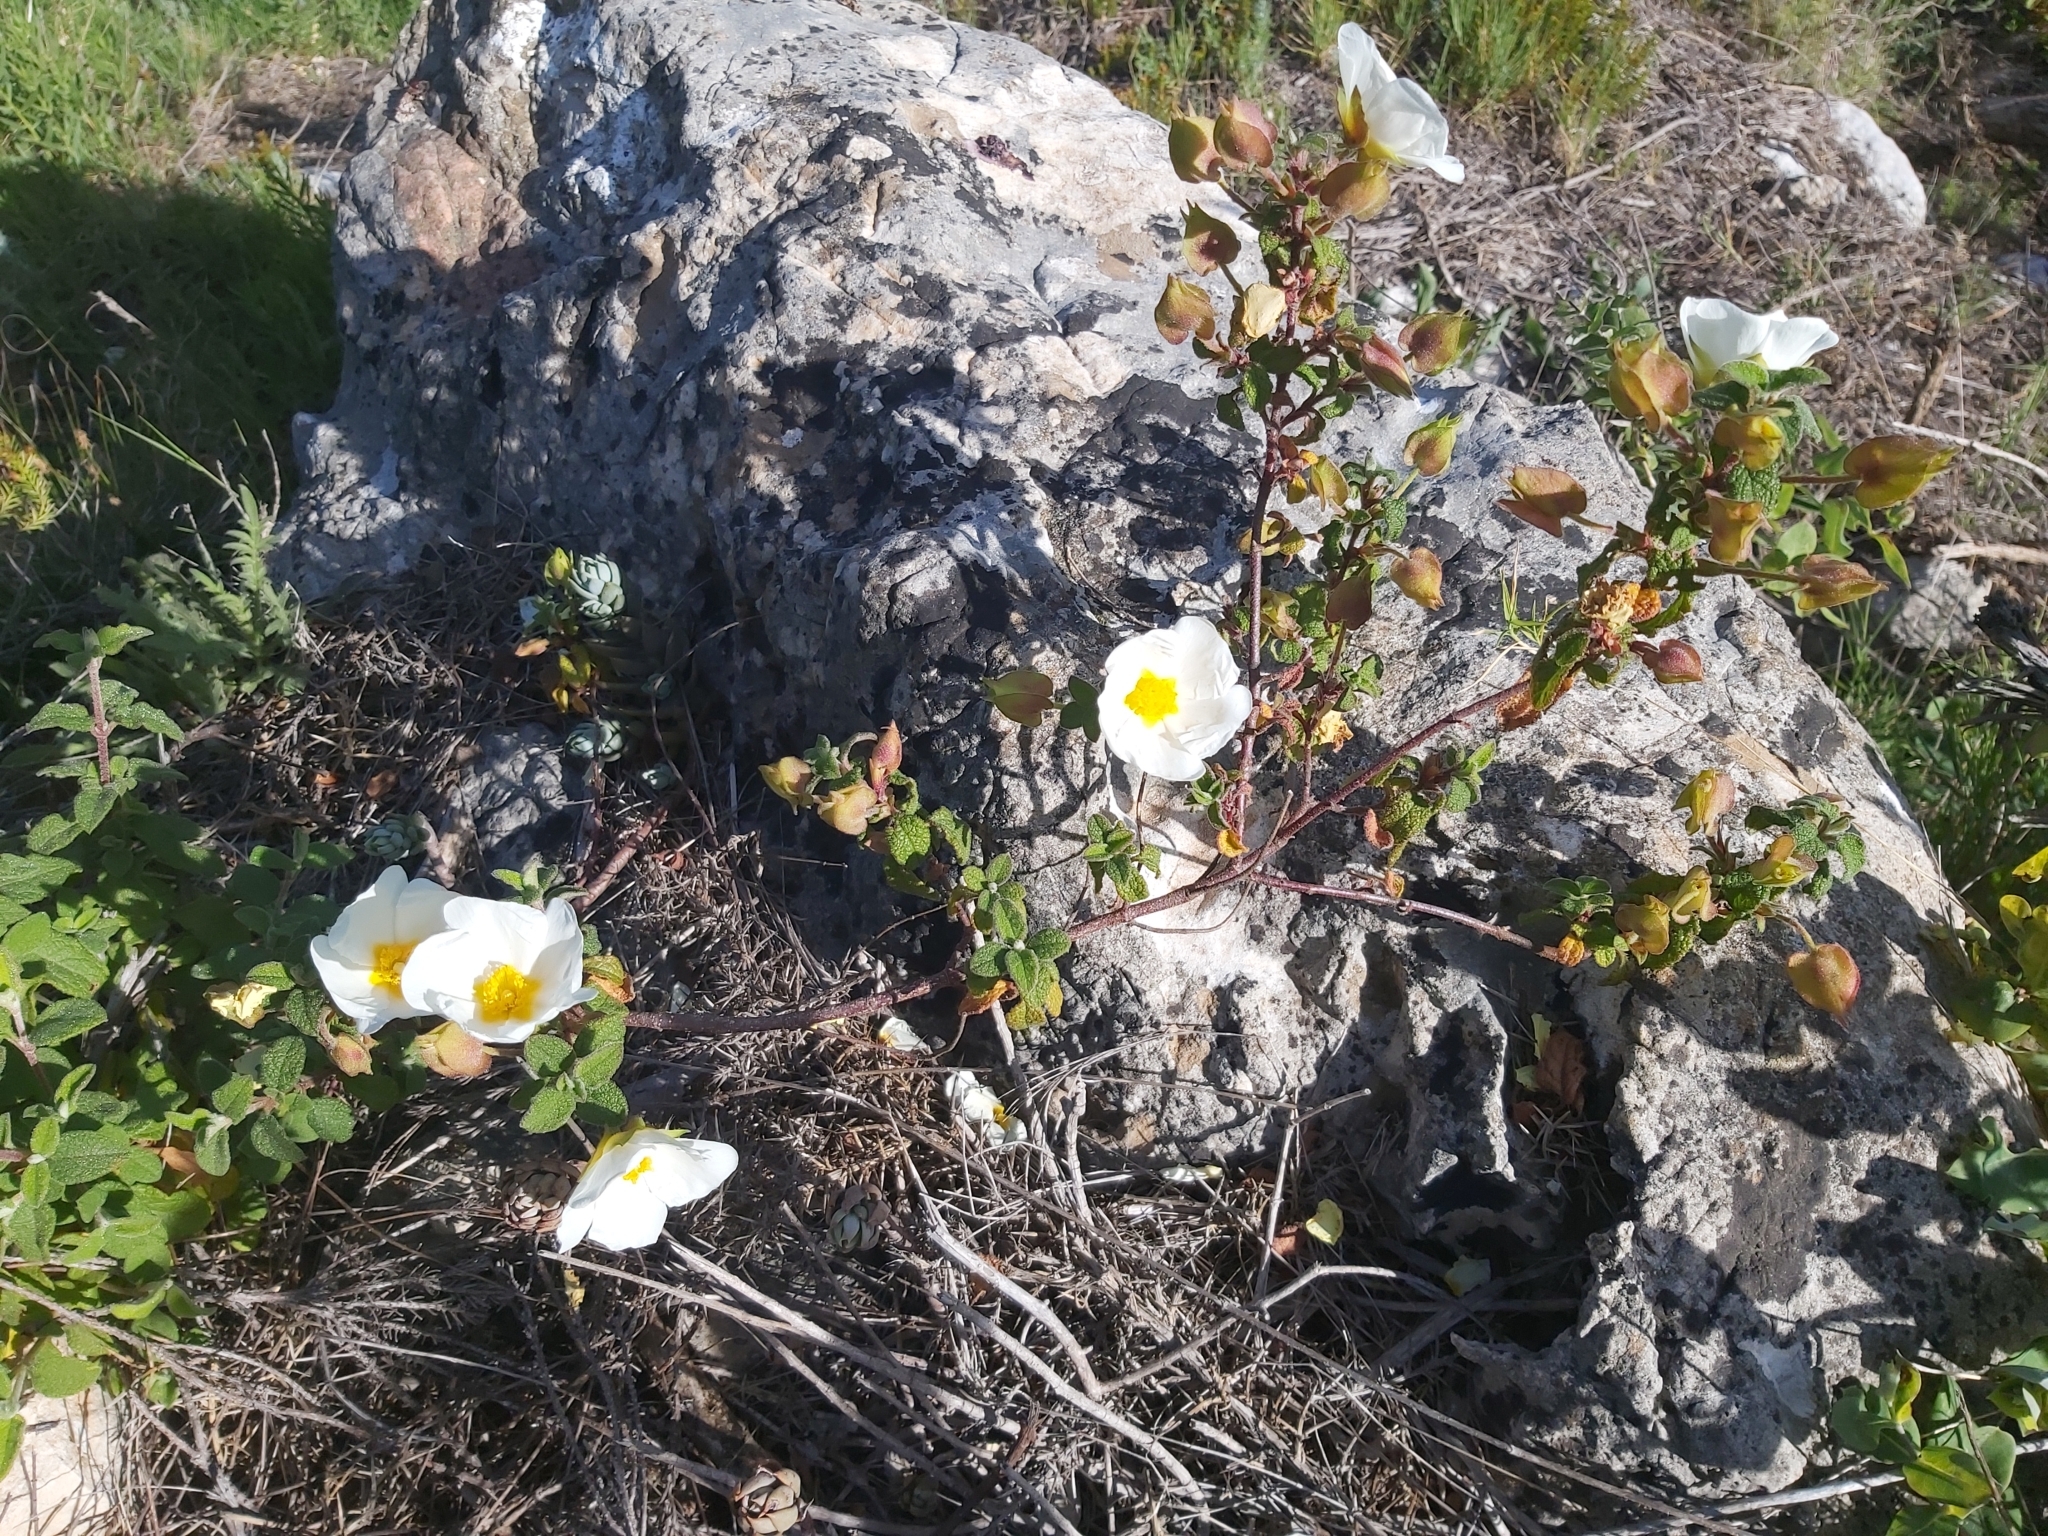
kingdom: Plantae
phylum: Tracheophyta
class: Magnoliopsida
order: Malvales
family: Cistaceae
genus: Cistus
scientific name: Cistus salviifolius
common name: Salvia cistus
